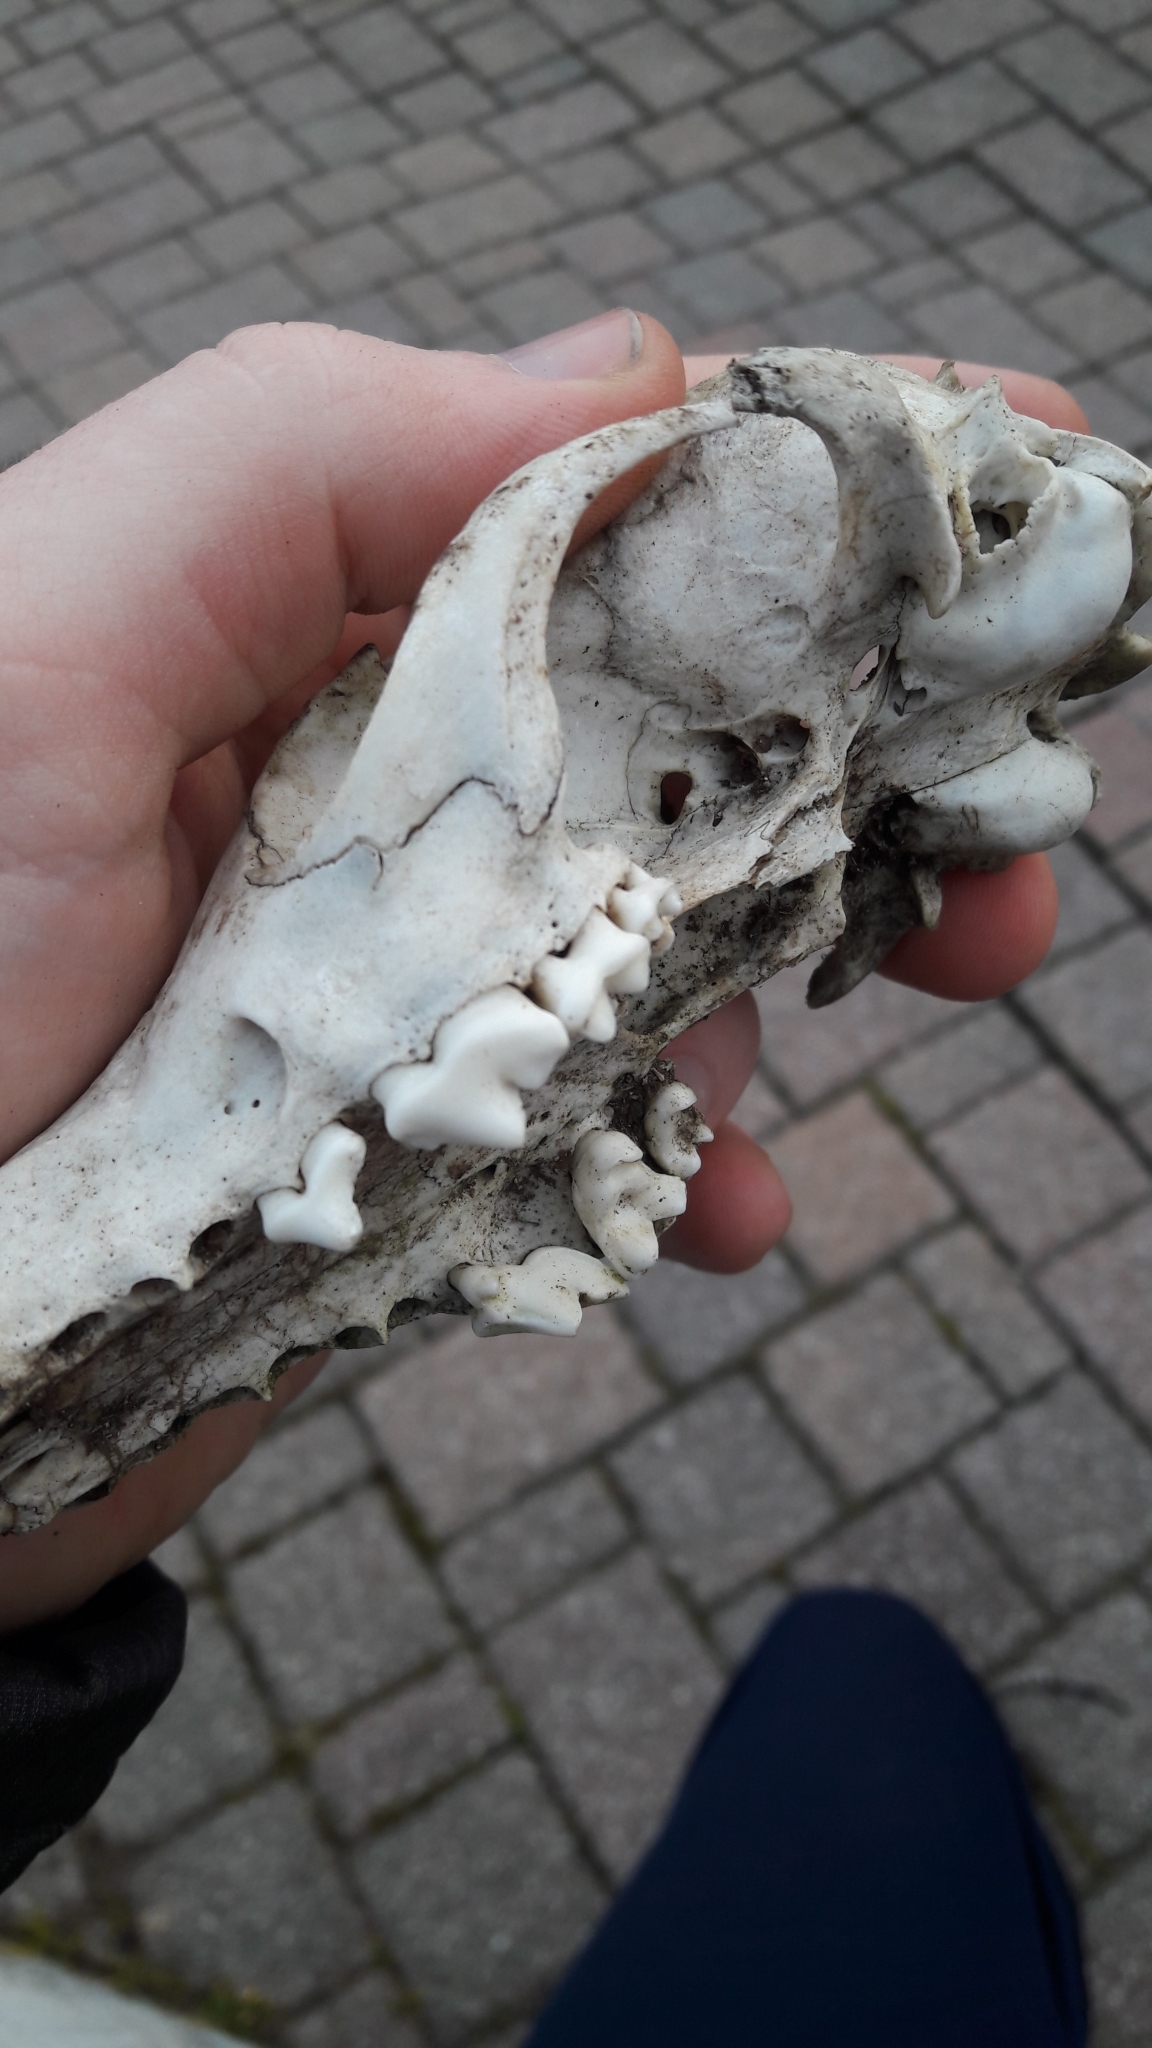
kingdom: Animalia
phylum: Chordata
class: Mammalia
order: Carnivora
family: Canidae
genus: Vulpes
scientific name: Vulpes vulpes
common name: Red fox
